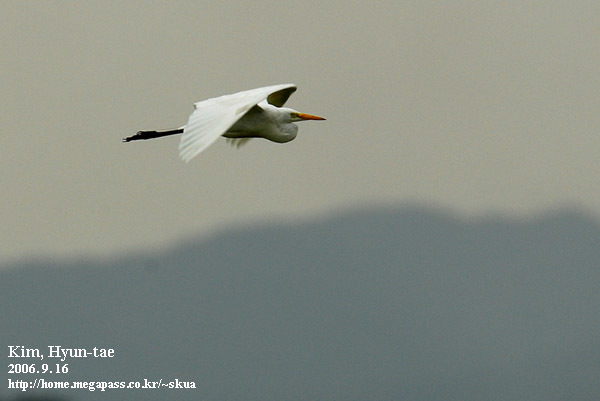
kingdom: Animalia
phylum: Chordata
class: Aves
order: Pelecaniformes
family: Ardeidae
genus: Egretta
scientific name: Egretta intermedia
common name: Intermediate egret
